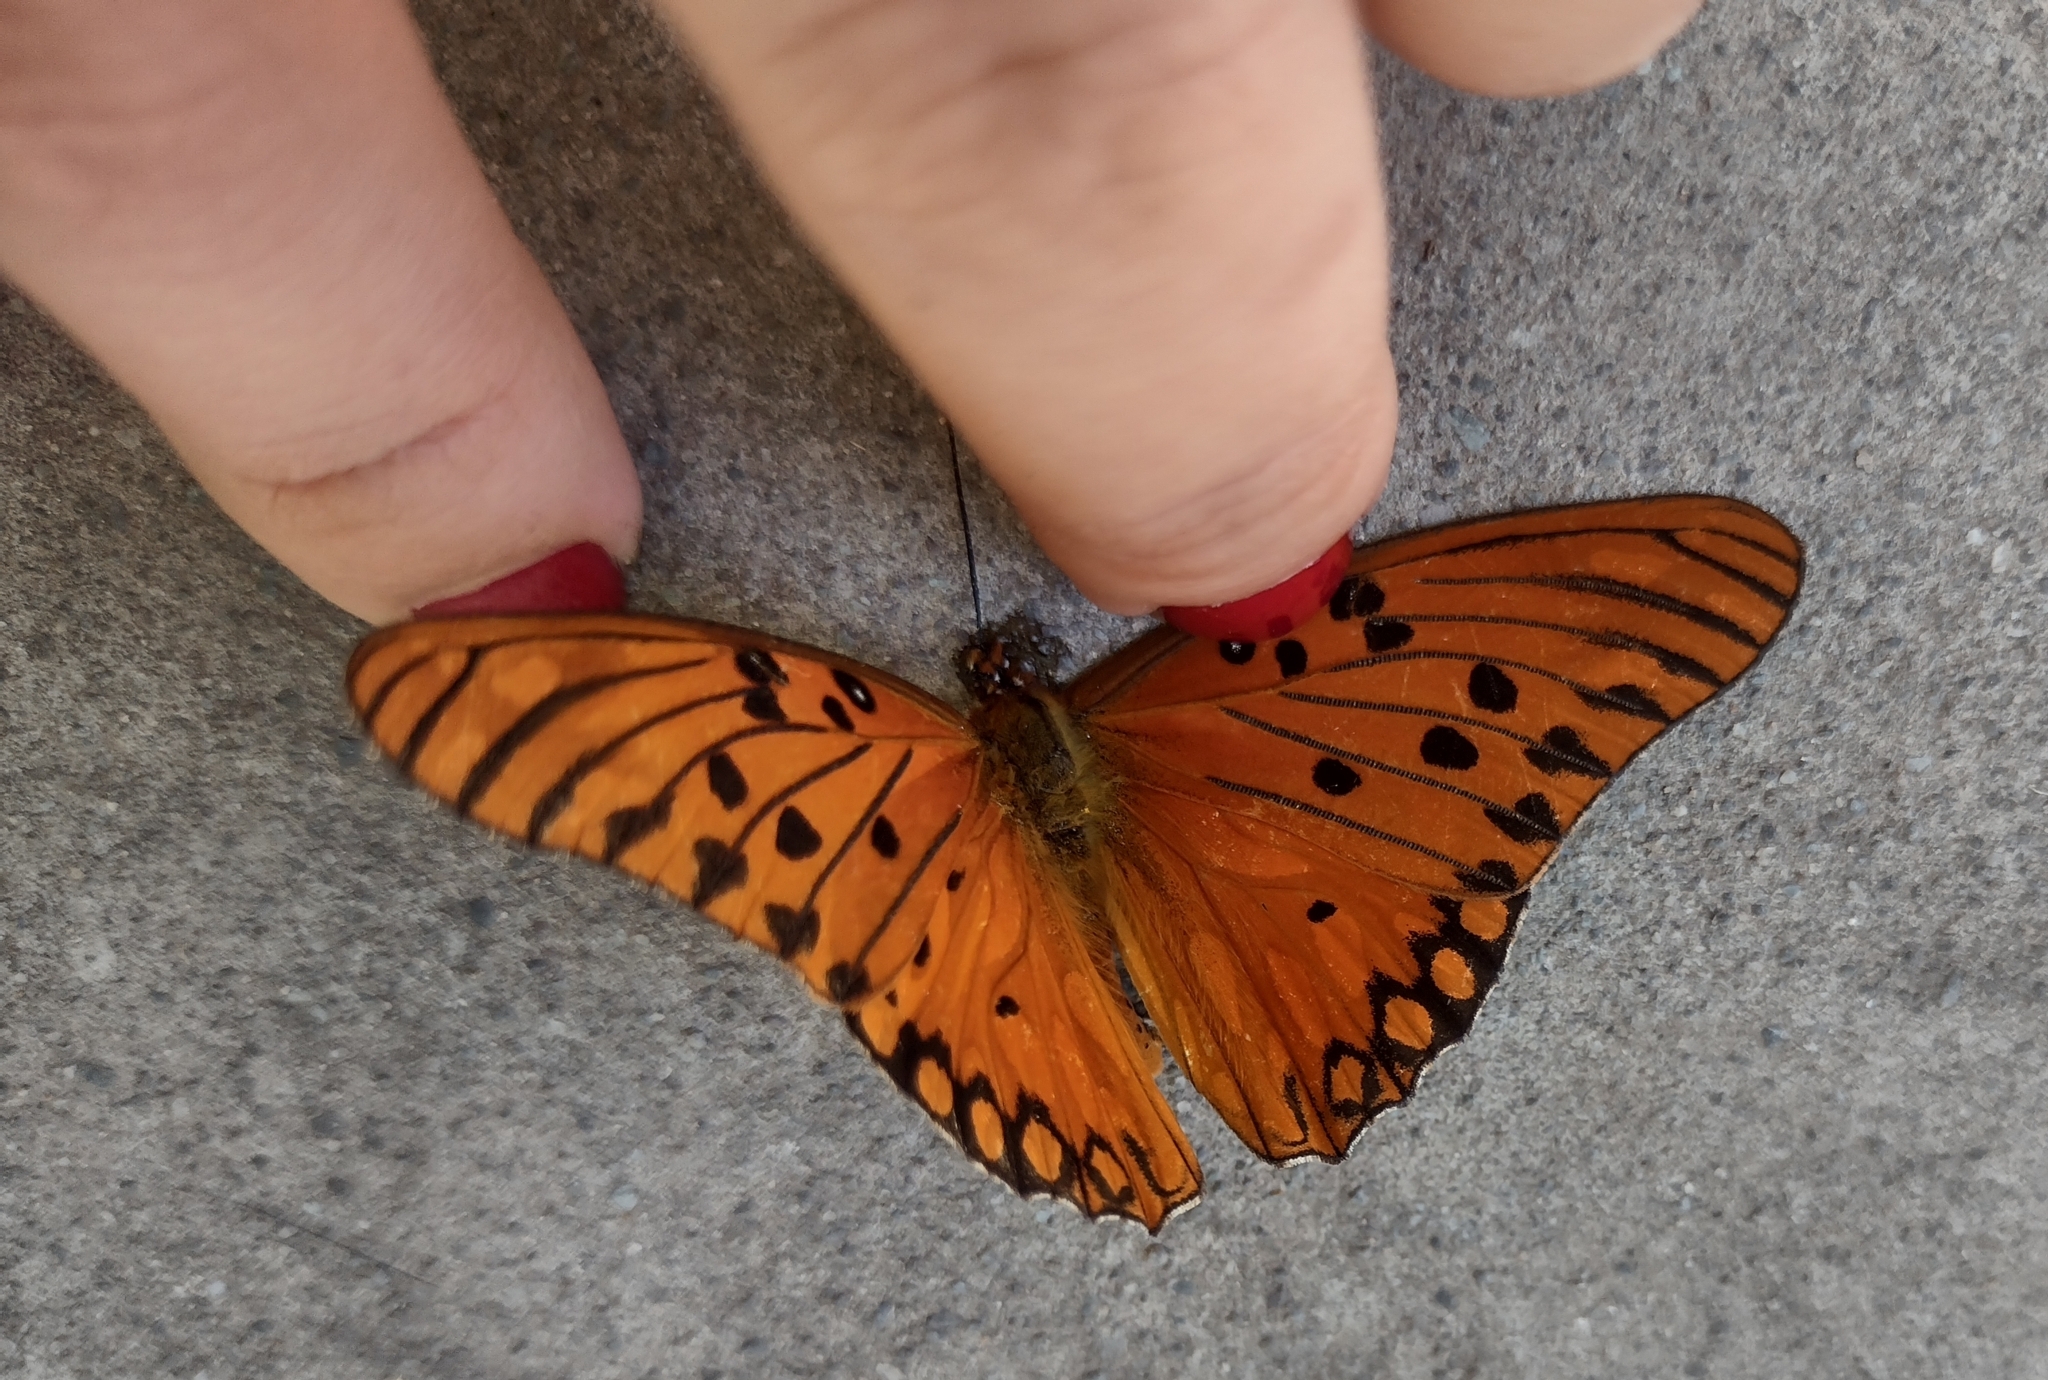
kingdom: Animalia
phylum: Arthropoda
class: Insecta
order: Lepidoptera
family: Nymphalidae
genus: Dione
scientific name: Dione vanillae
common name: Gulf fritillary
